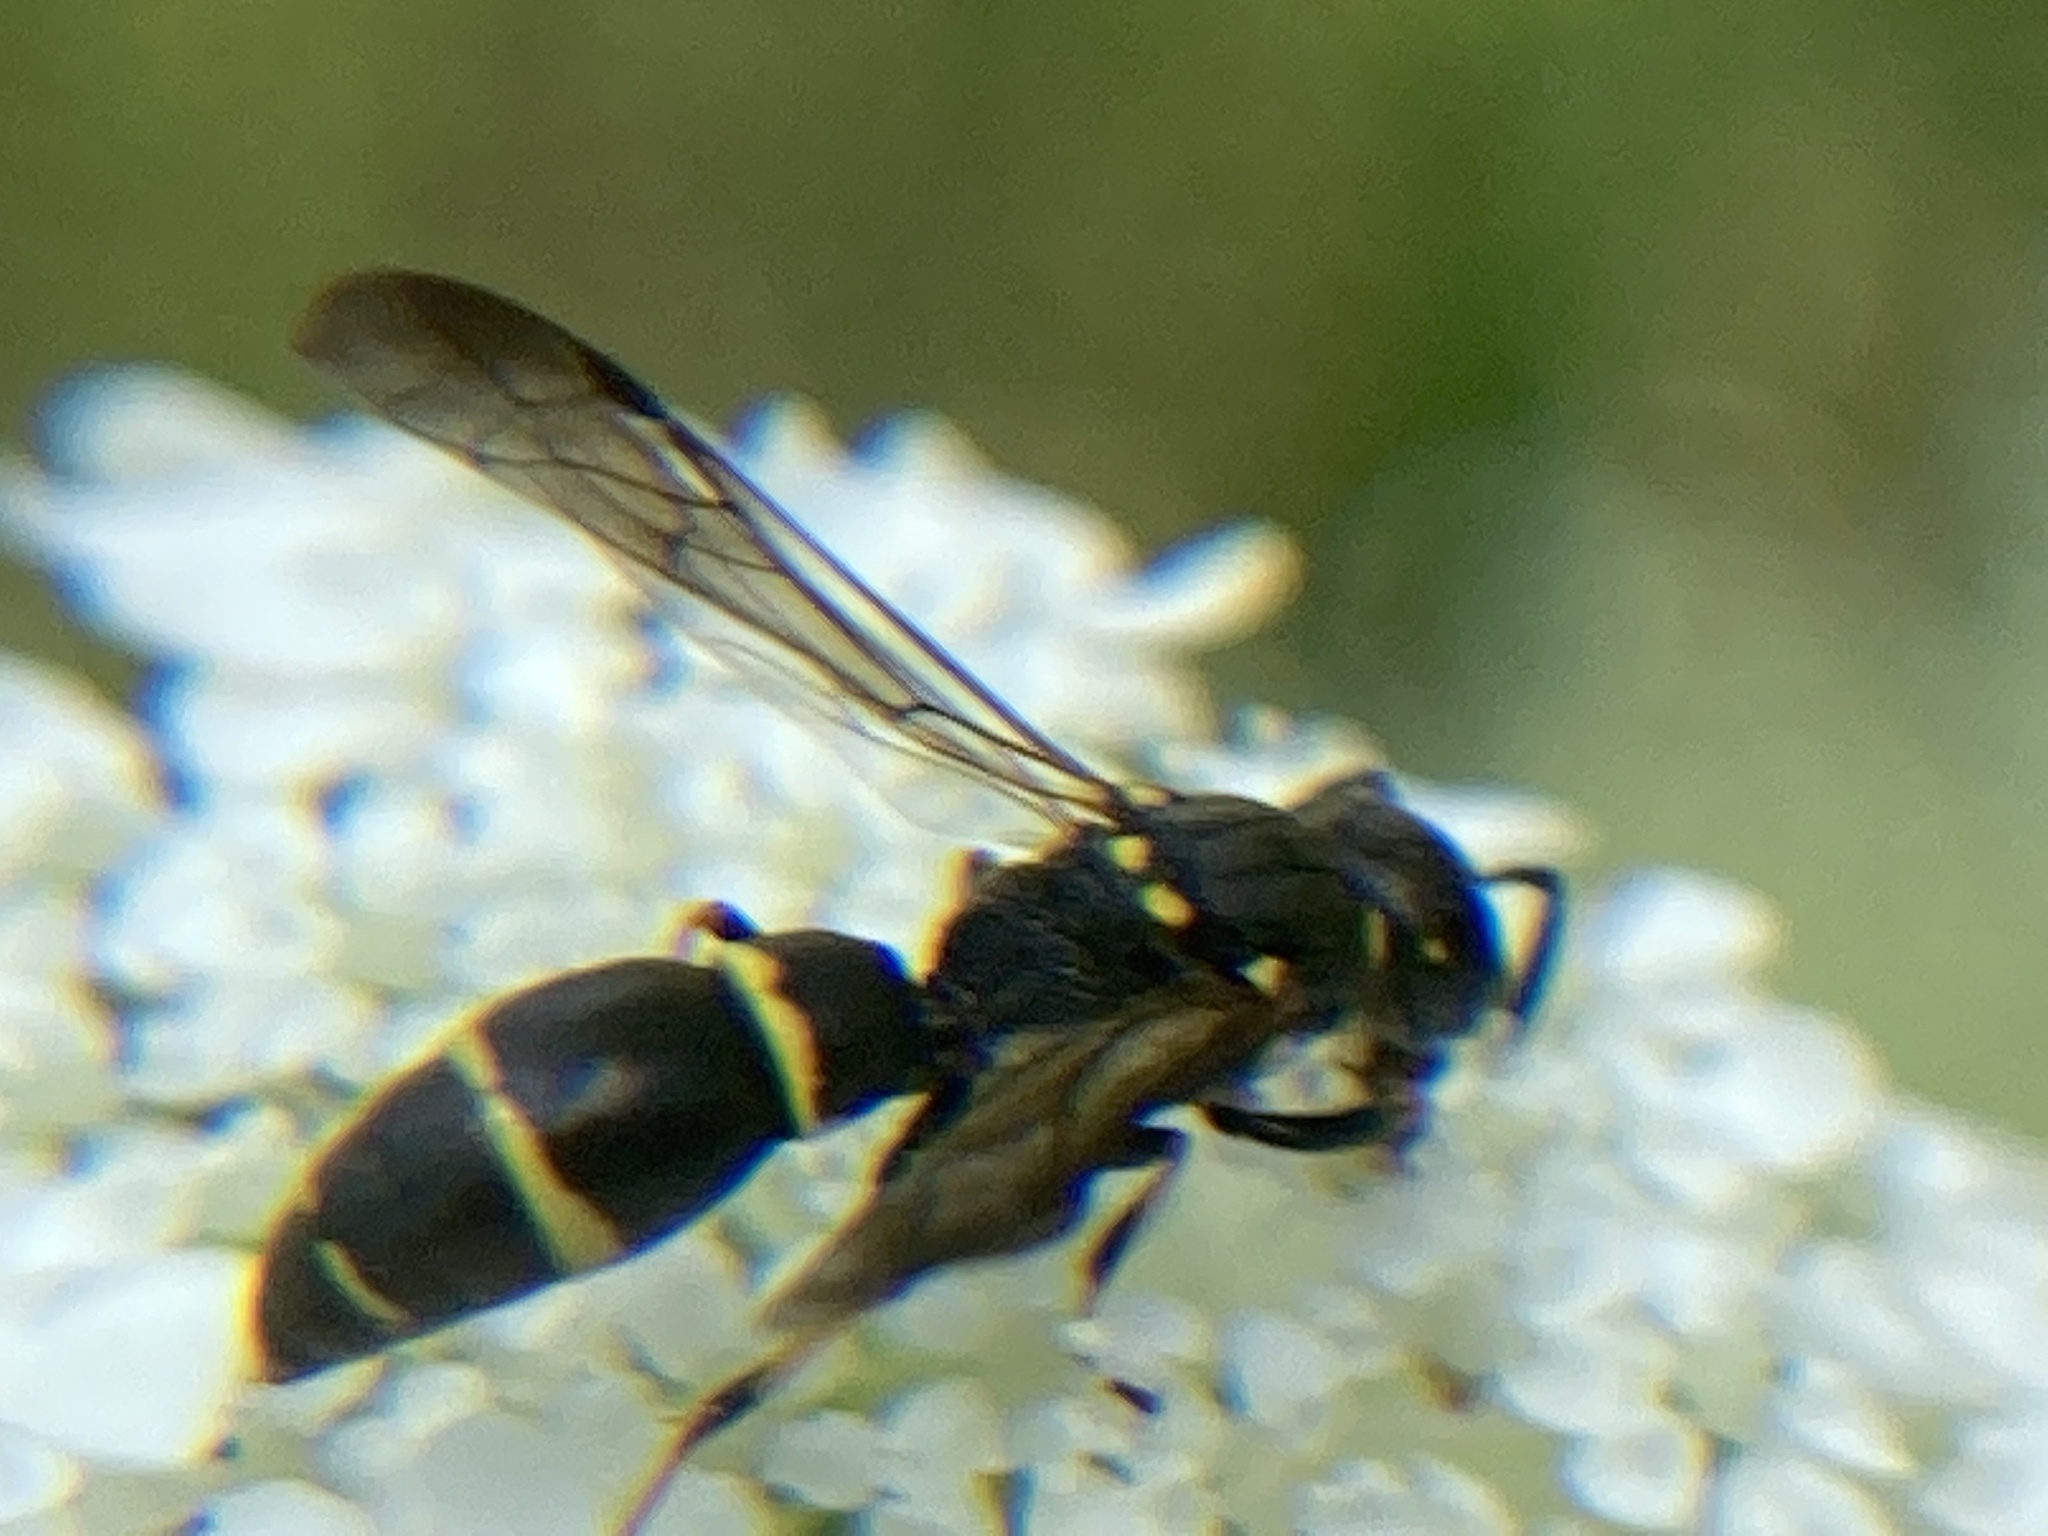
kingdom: Animalia
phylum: Arthropoda
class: Insecta
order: Hymenoptera
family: Eumenidae
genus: Symmorphus
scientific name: Symmorphus
